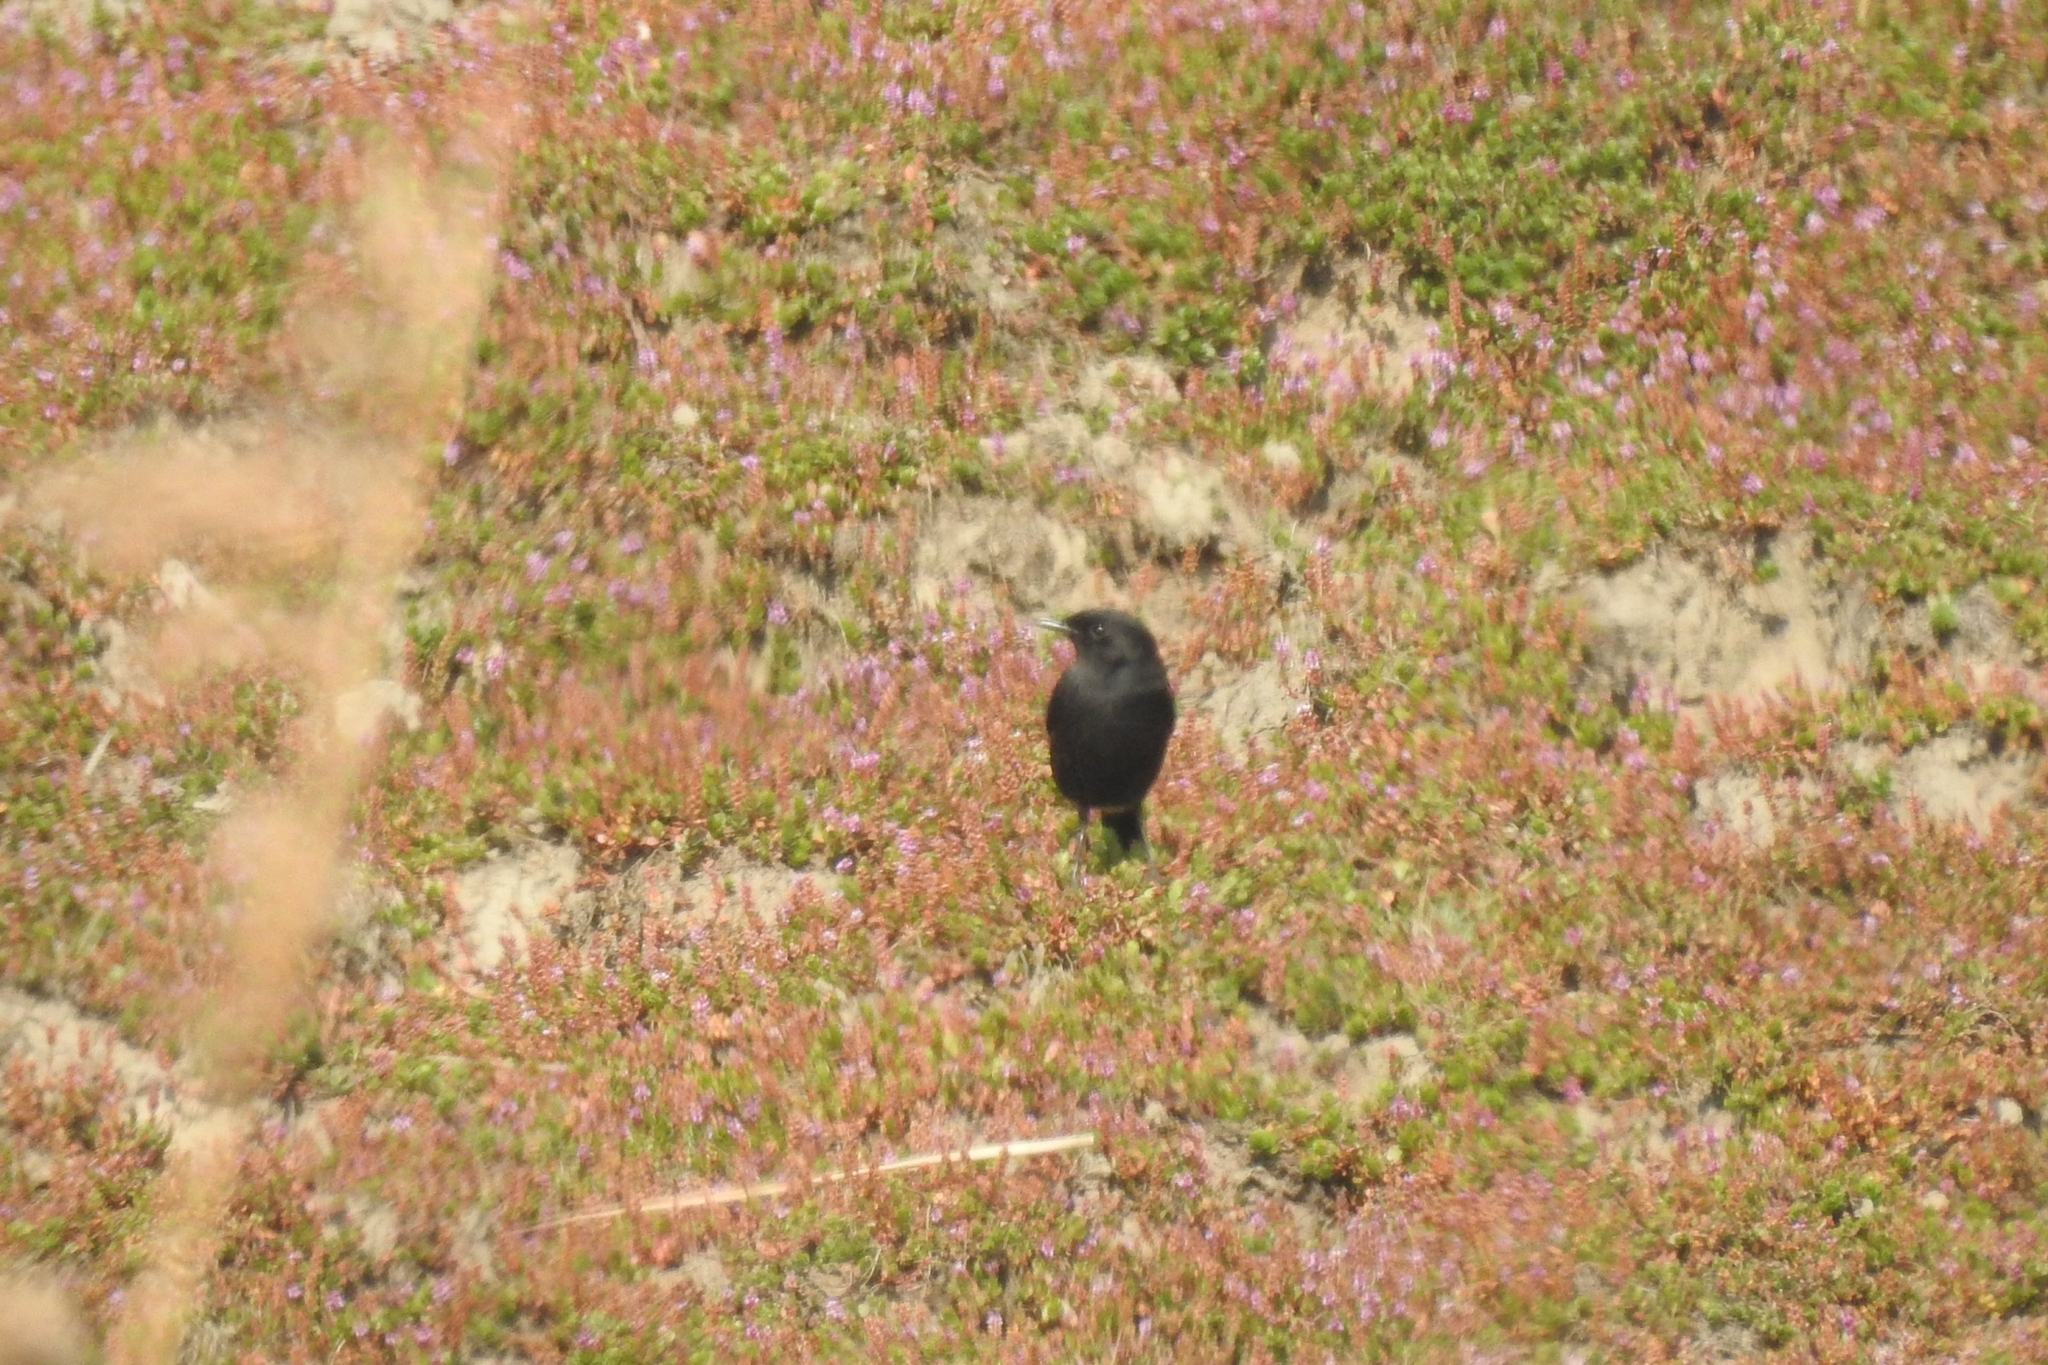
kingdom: Animalia
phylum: Chordata
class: Aves
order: Passeriformes
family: Muscicapidae
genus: Saxicola
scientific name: Saxicola caprata
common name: Pied bush chat
